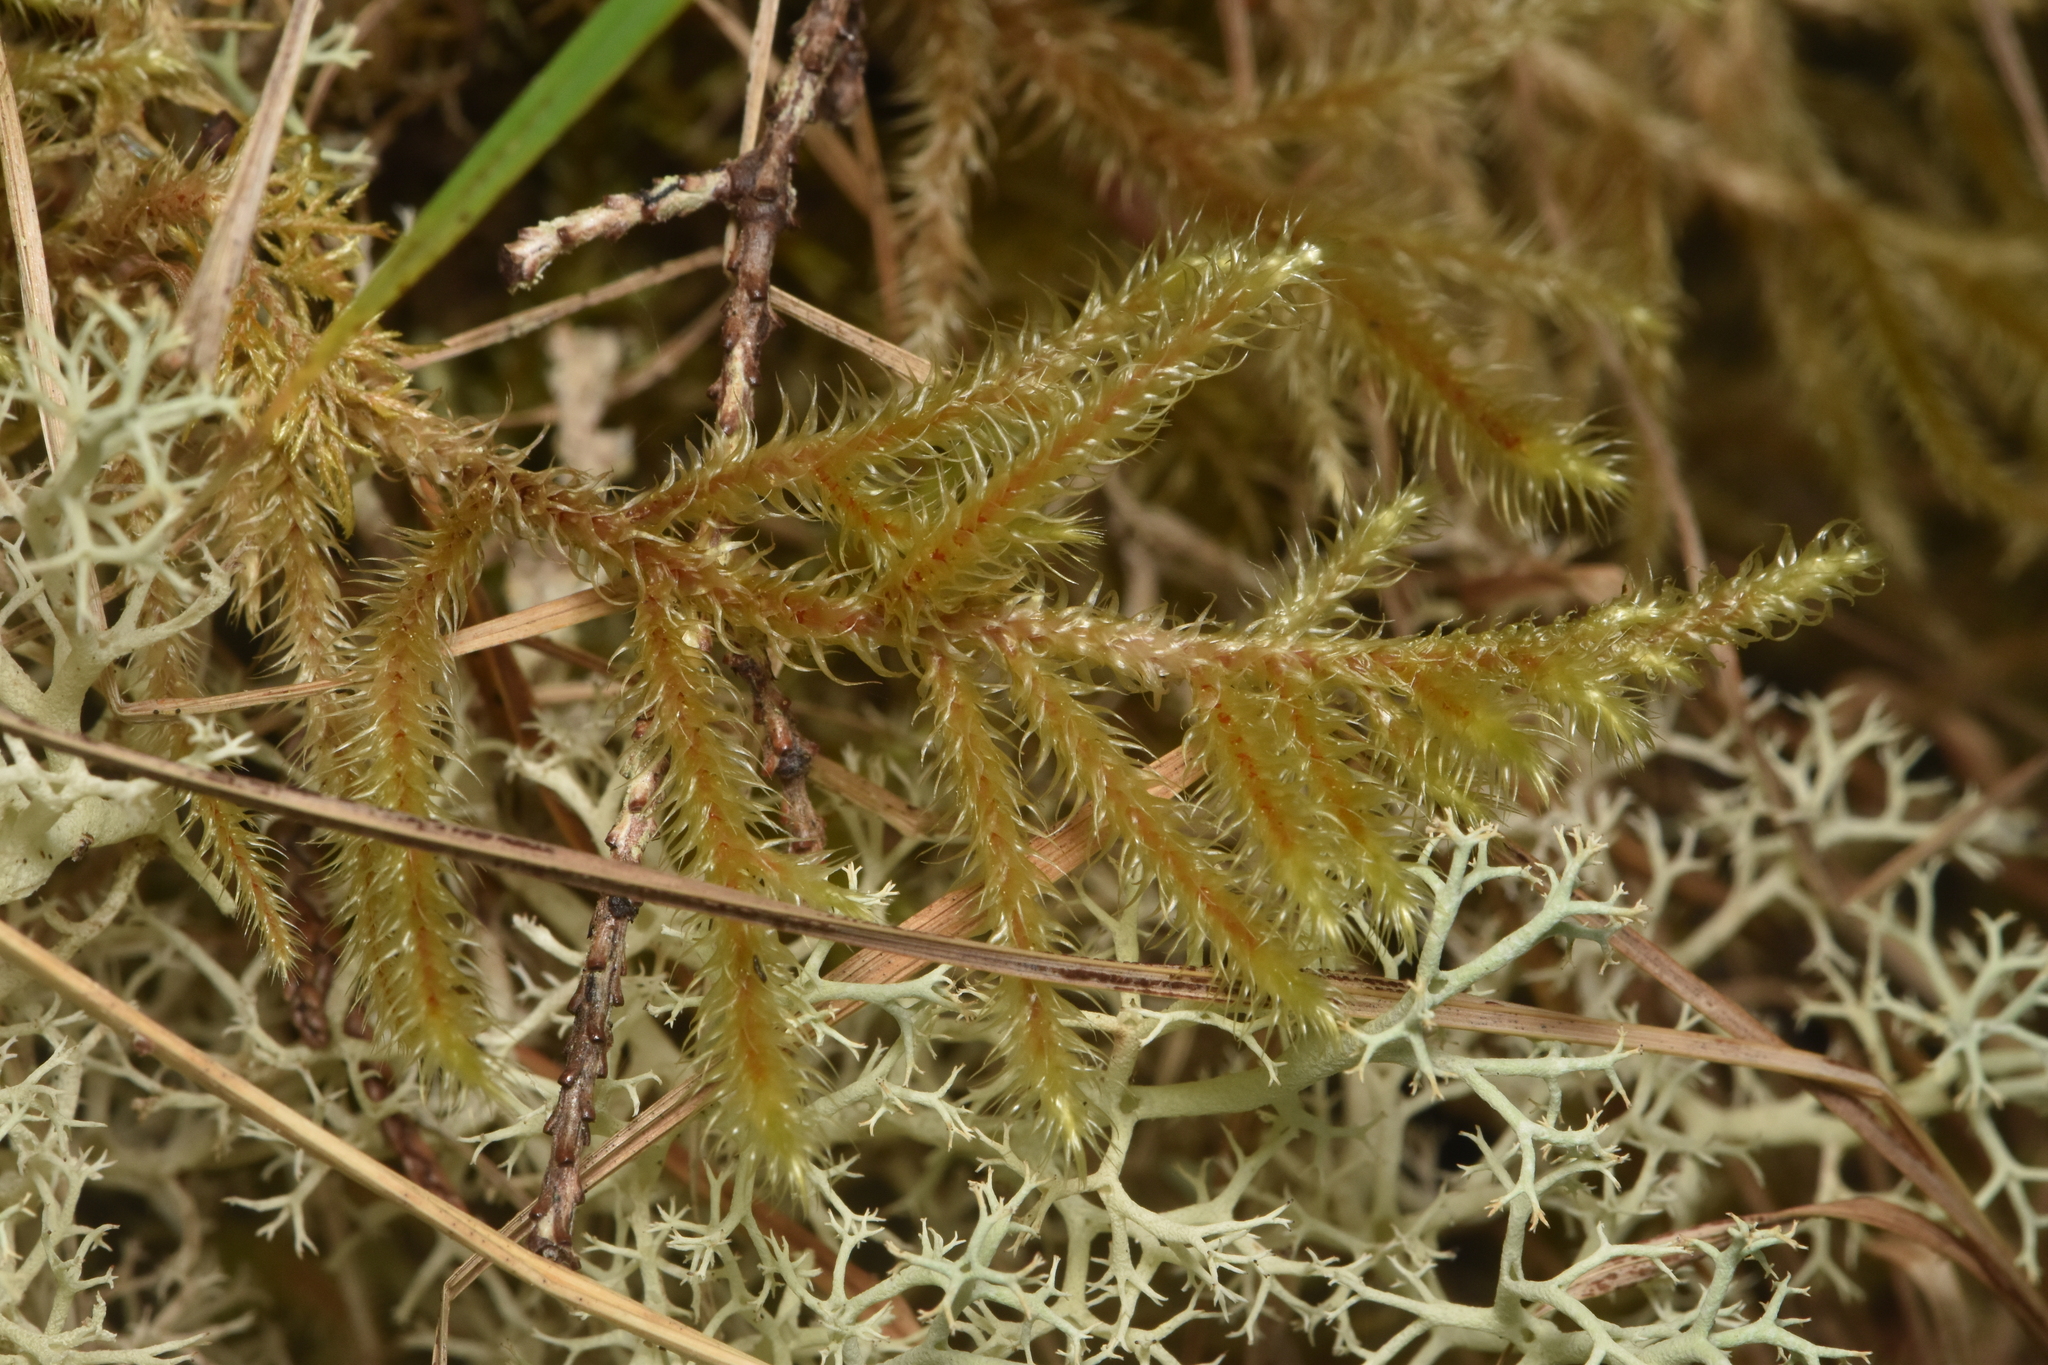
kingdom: Plantae
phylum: Bryophyta
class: Bryopsida
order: Hypnales
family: Hylocomiaceae
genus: Rhytidiadelphus
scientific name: Rhytidiadelphus loreus
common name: Lanky moss
